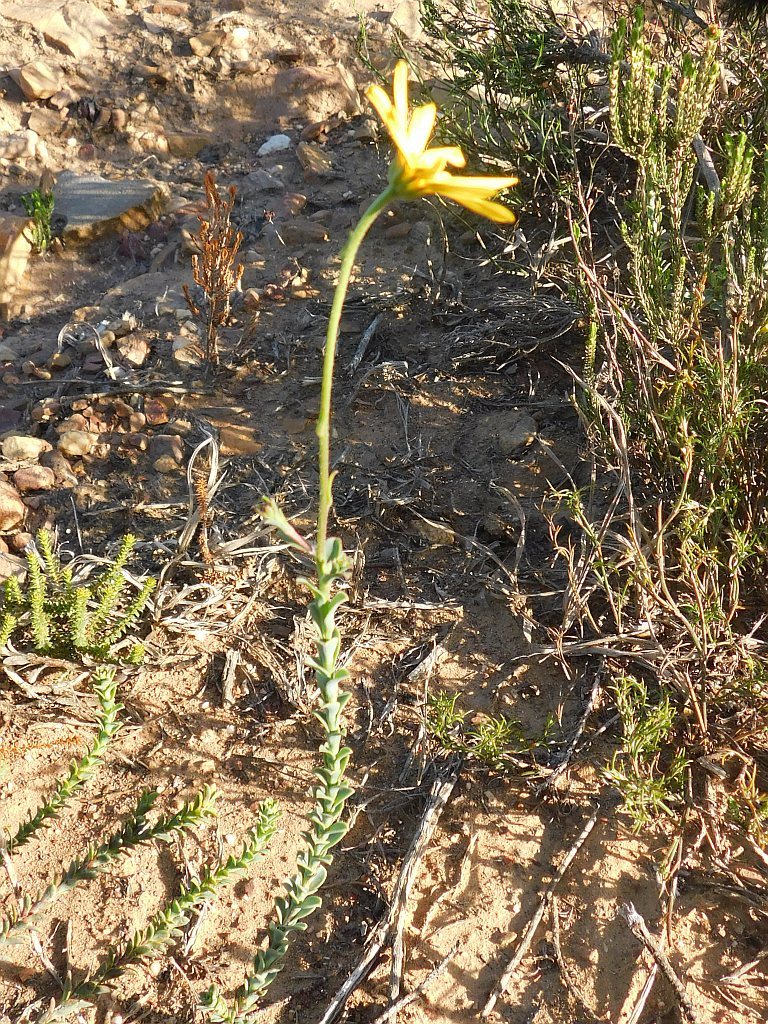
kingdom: Plantae
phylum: Tracheophyta
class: Magnoliopsida
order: Asterales
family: Asteraceae
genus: Osteospermum
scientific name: Osteospermum polygaloides
